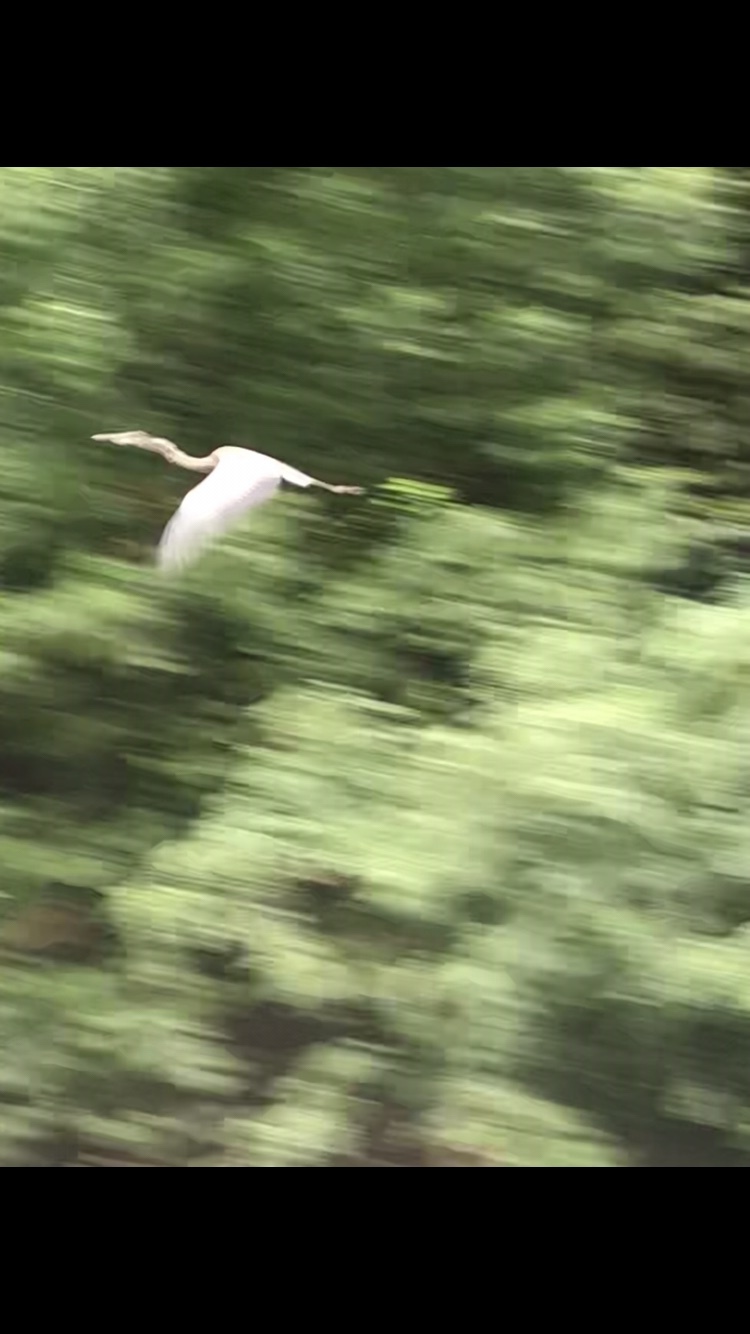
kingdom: Animalia
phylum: Chordata
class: Aves
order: Pelecaniformes
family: Ardeidae
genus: Ardea
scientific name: Ardea herodias
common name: Great blue heron
